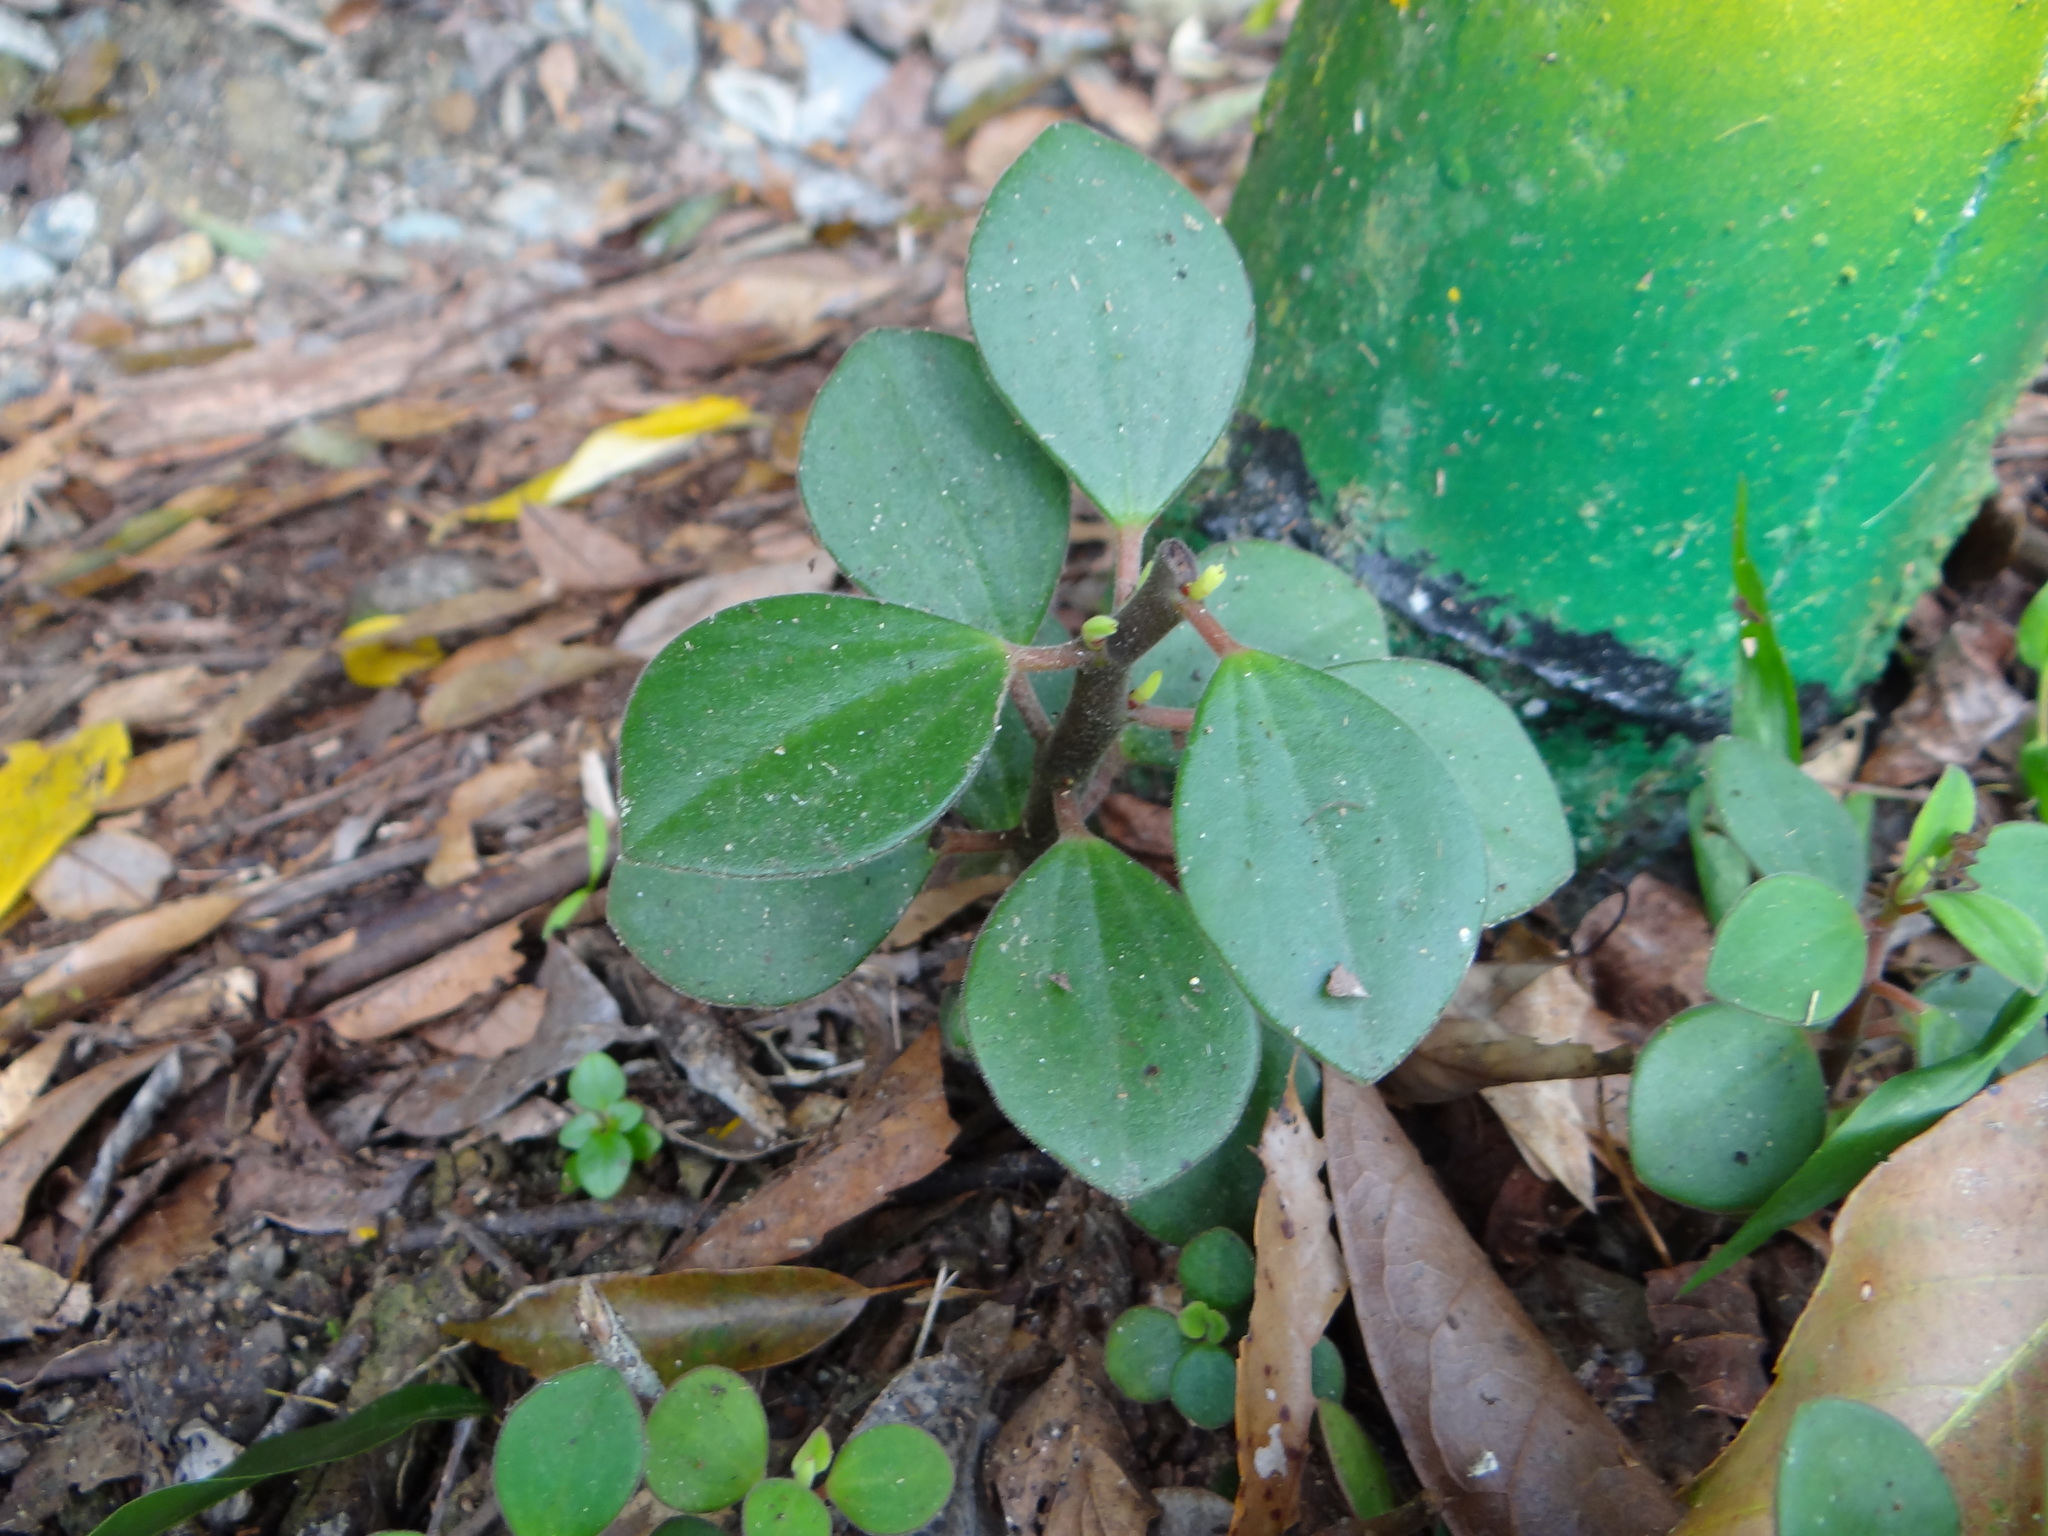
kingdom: Plantae
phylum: Tracheophyta
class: Magnoliopsida
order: Piperales
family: Piperaceae
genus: Peperomia
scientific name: Peperomia leptostachya
